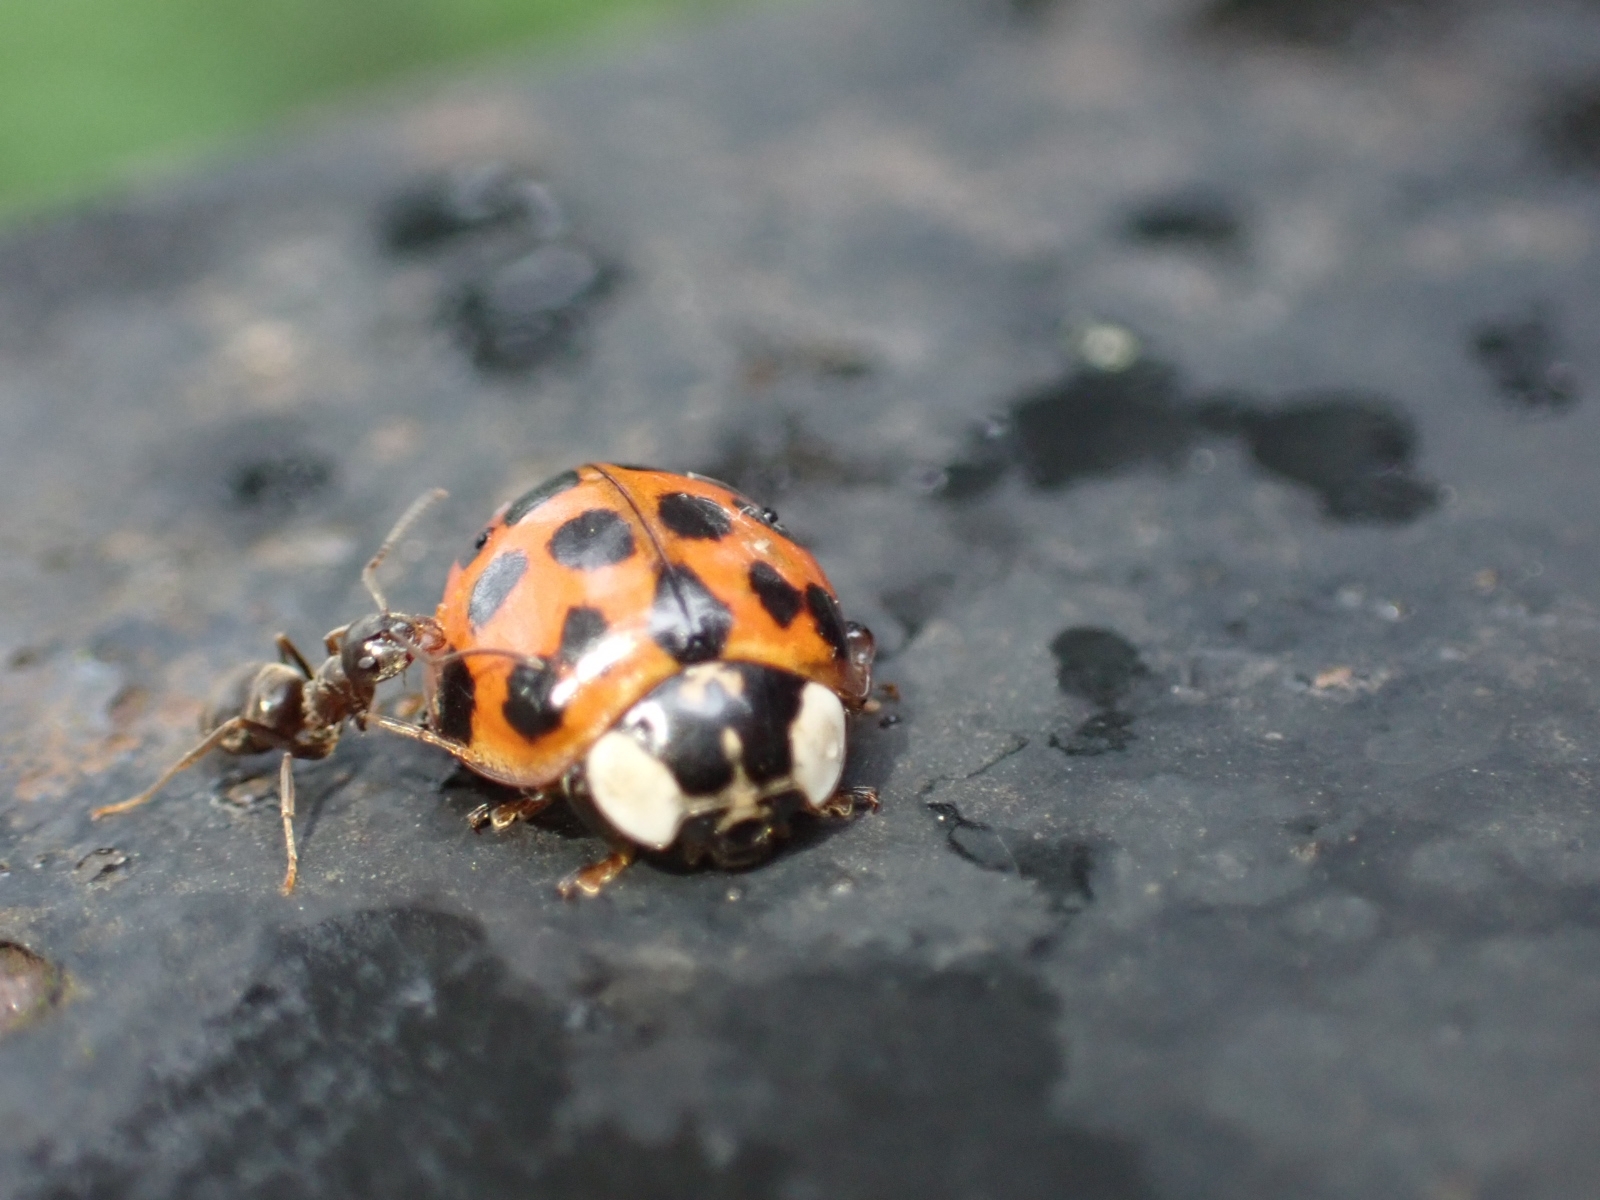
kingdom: Animalia
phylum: Arthropoda
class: Insecta
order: Coleoptera
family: Coccinellidae
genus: Harmonia
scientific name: Harmonia axyridis
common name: Harlequin ladybird
